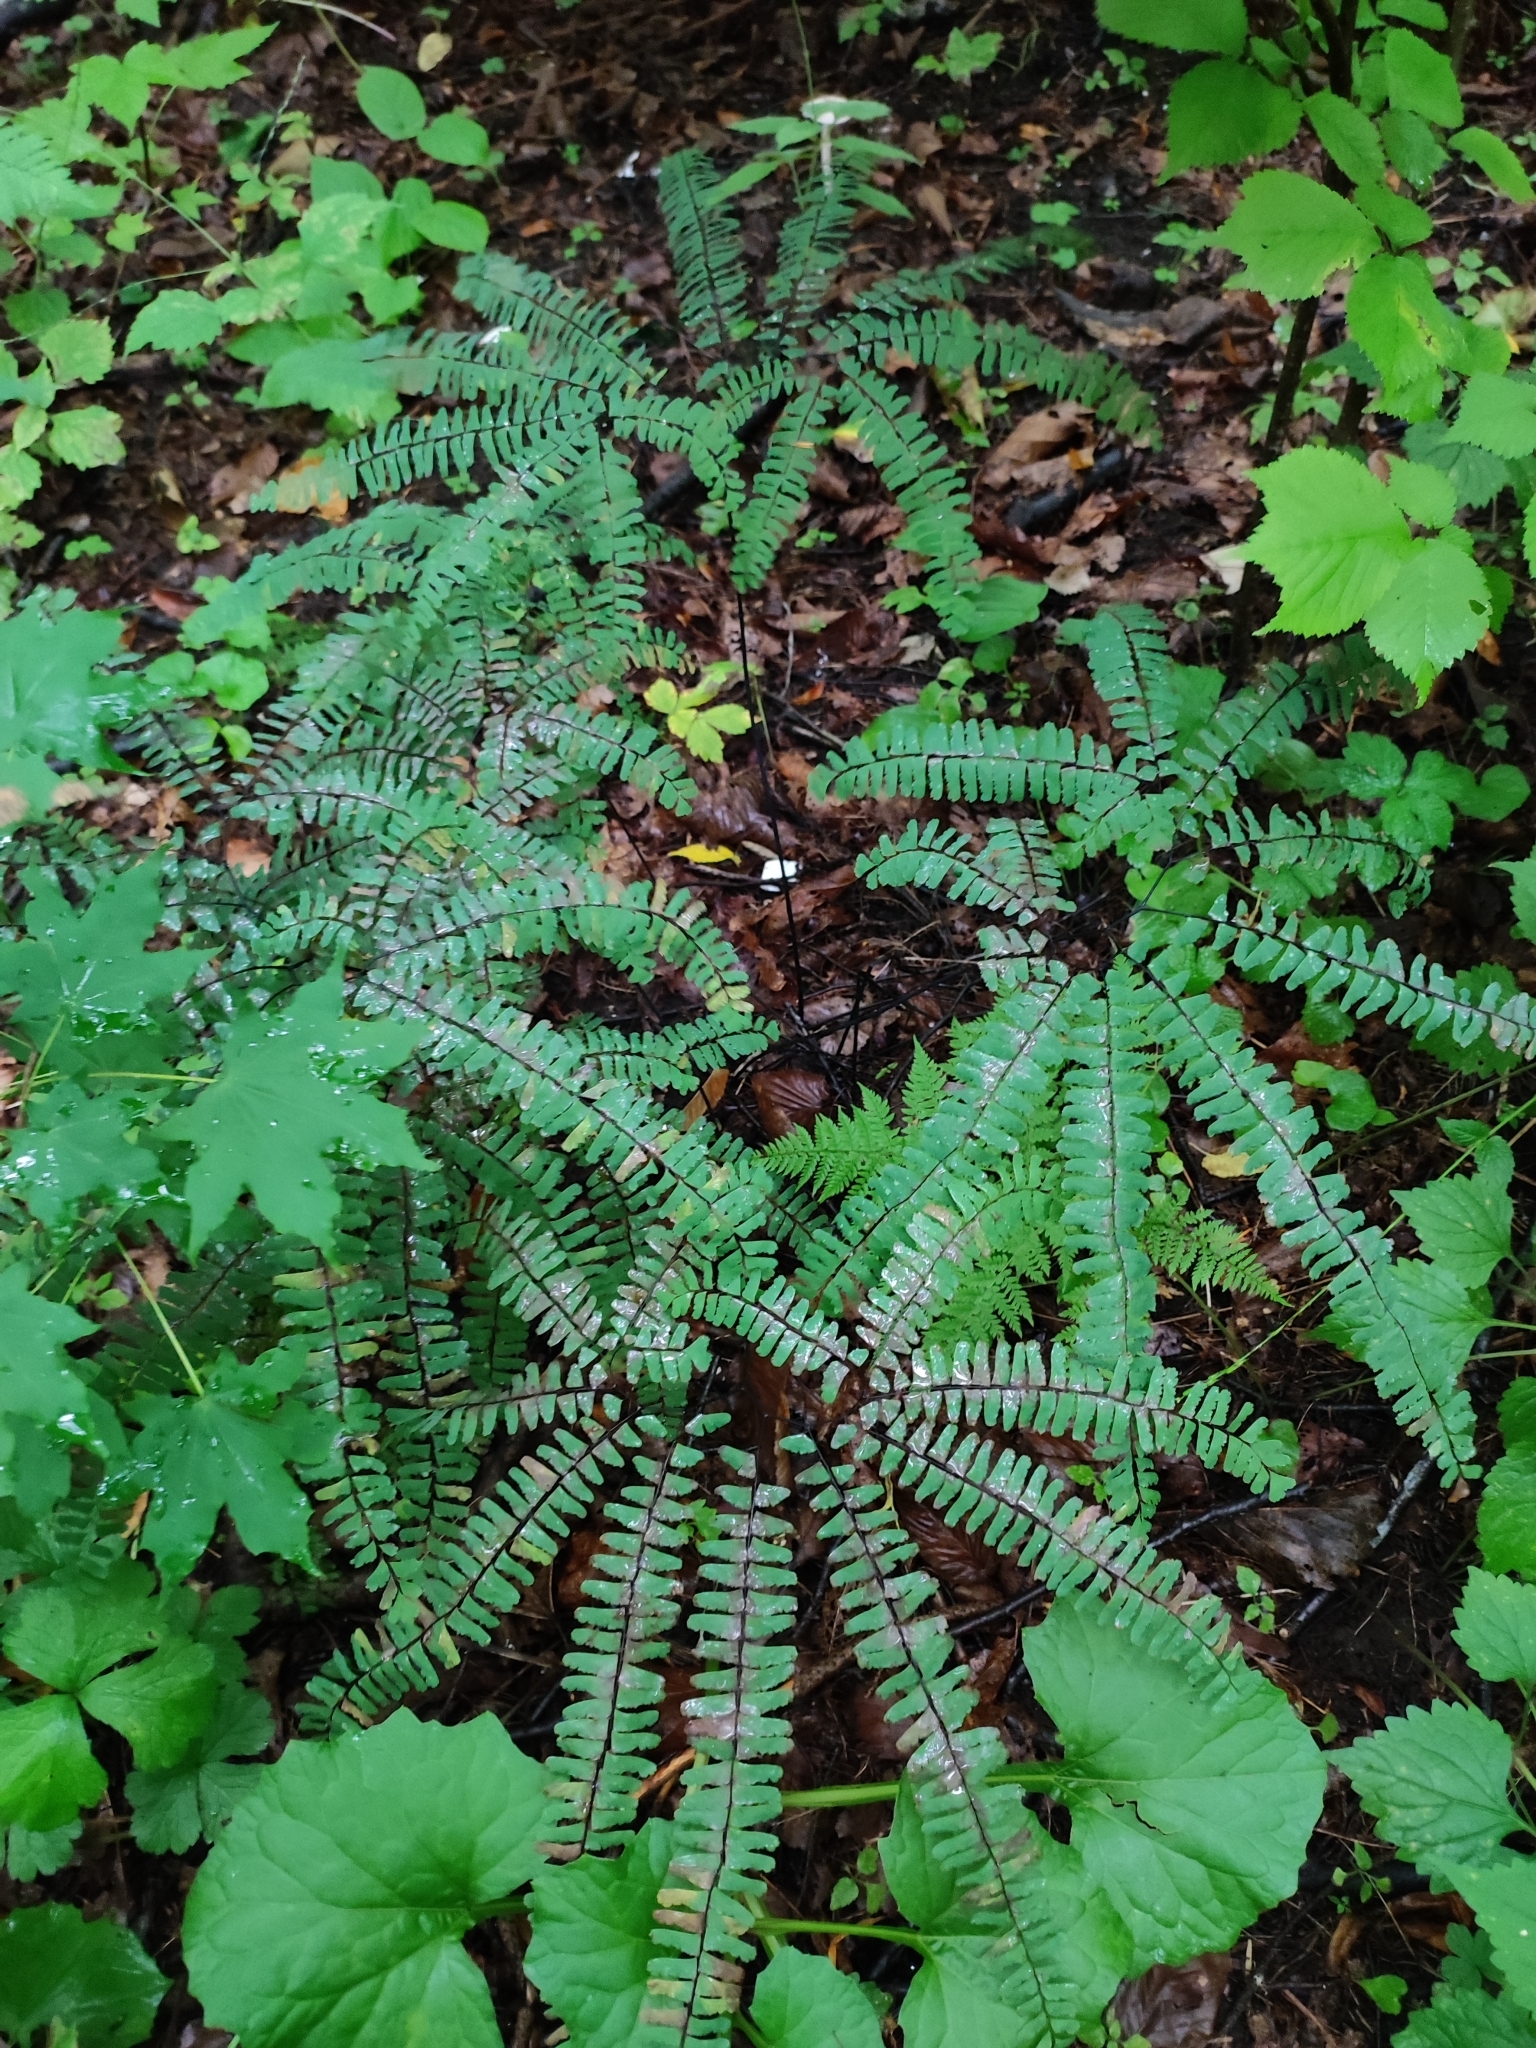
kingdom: Plantae
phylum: Tracheophyta
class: Polypodiopsida
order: Polypodiales
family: Pteridaceae
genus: Adiantum
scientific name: Adiantum pedatum
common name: Five-finger fern
